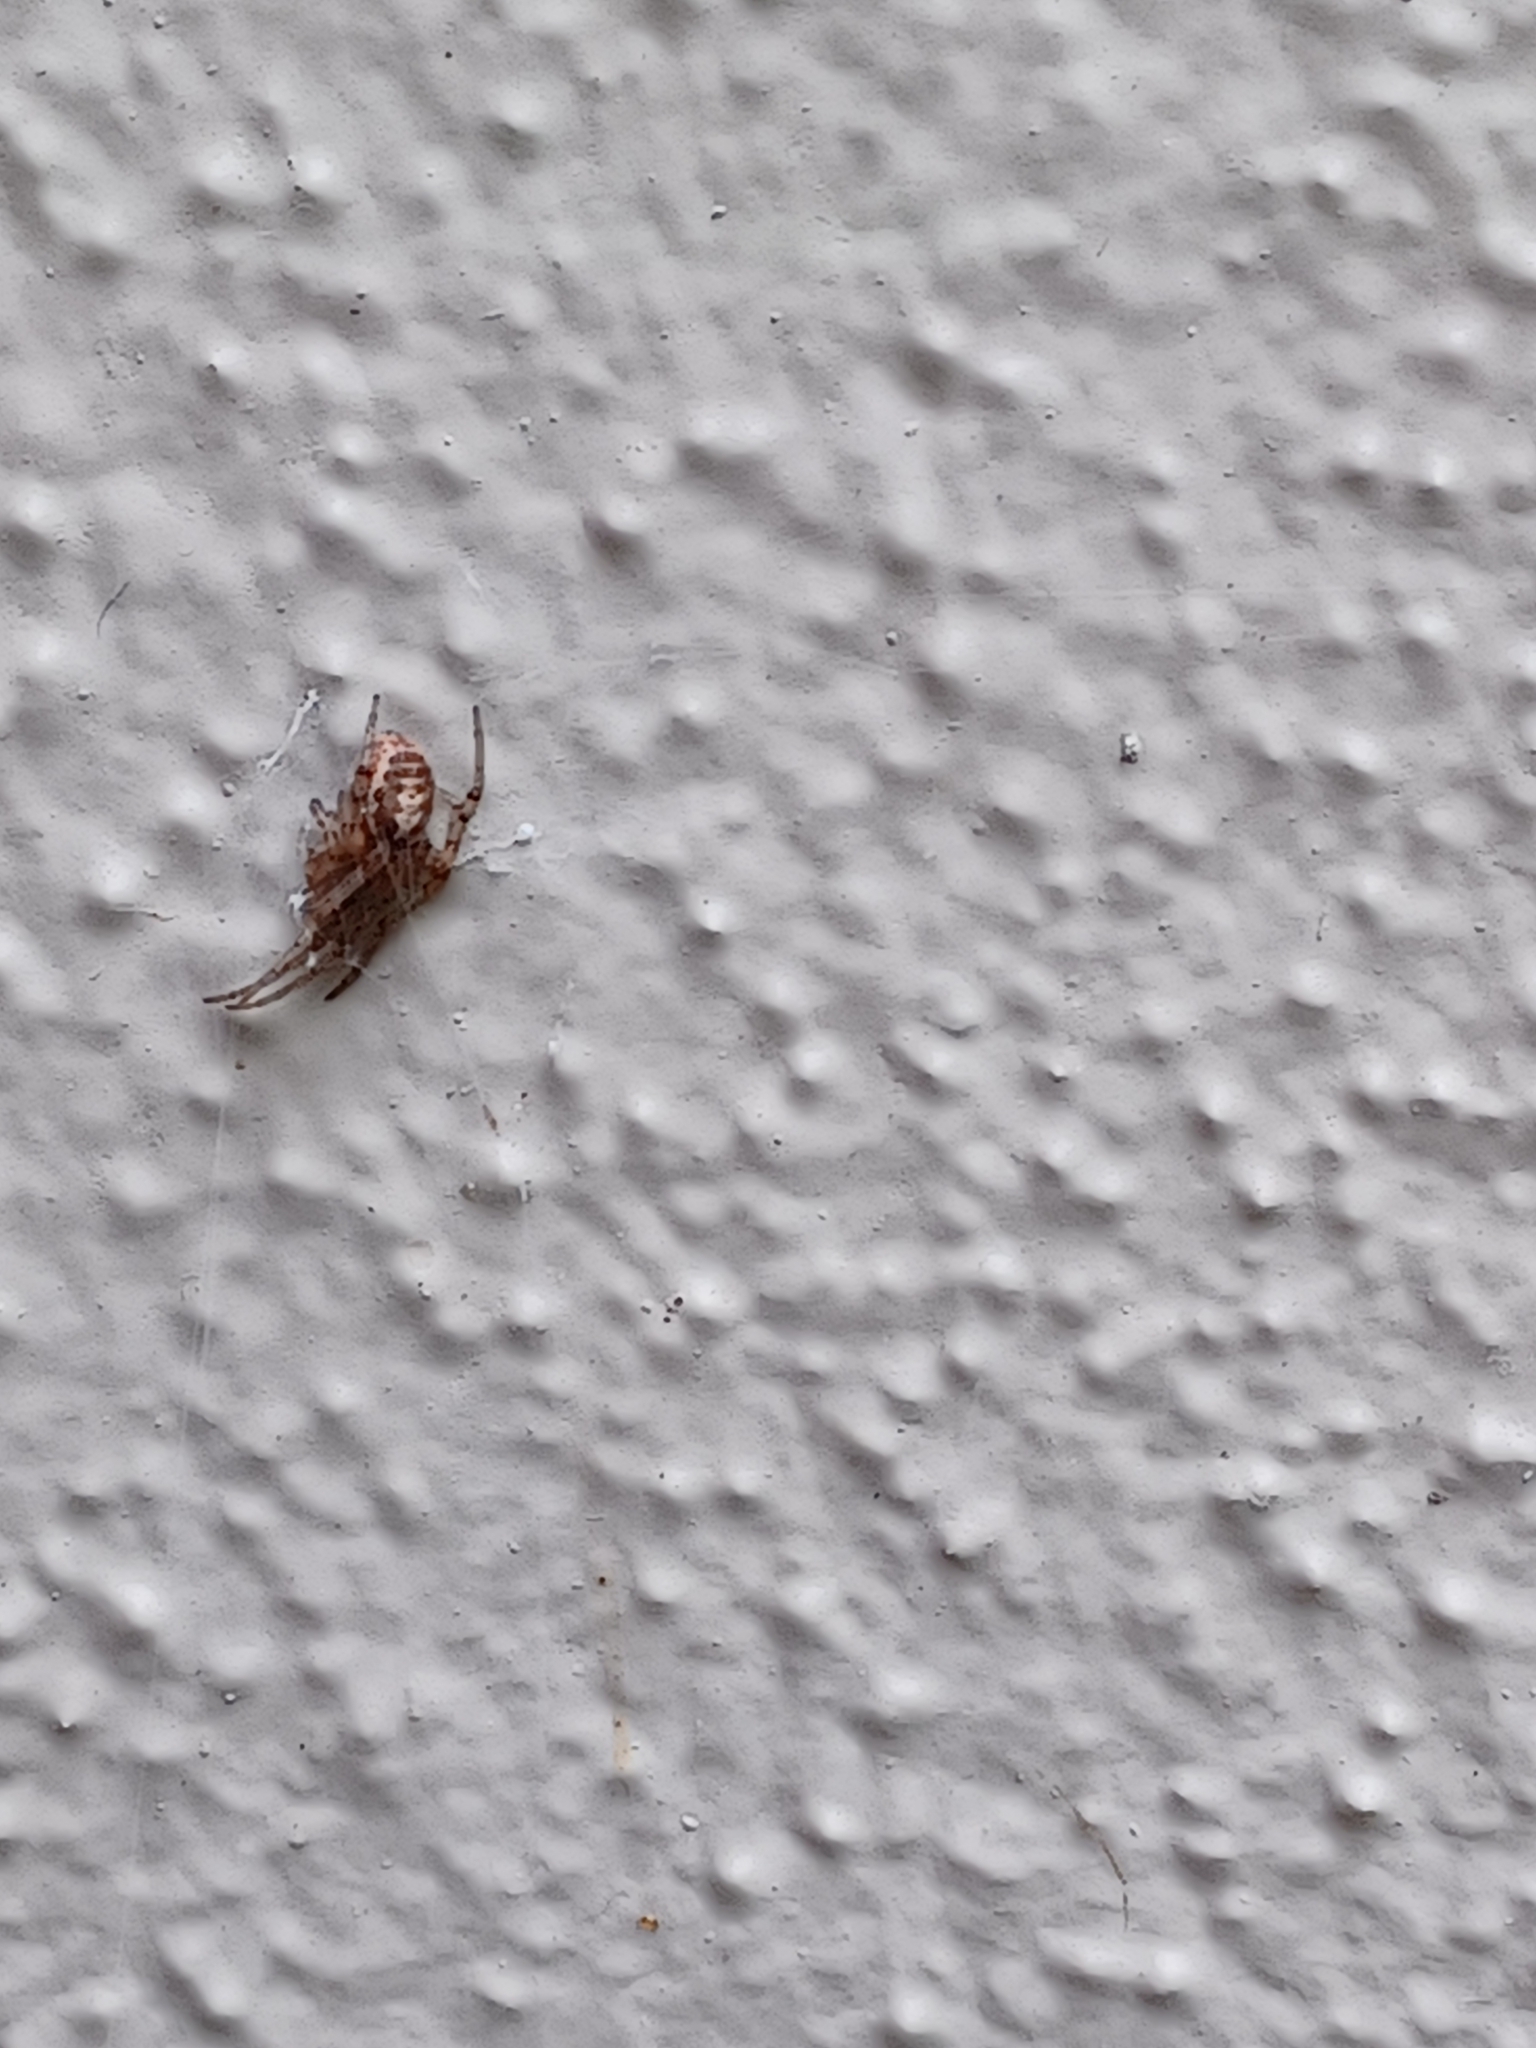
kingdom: Animalia
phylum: Arthropoda
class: Arachnida
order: Araneae
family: Araneidae
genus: Zygiella
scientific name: Zygiella x-notata
